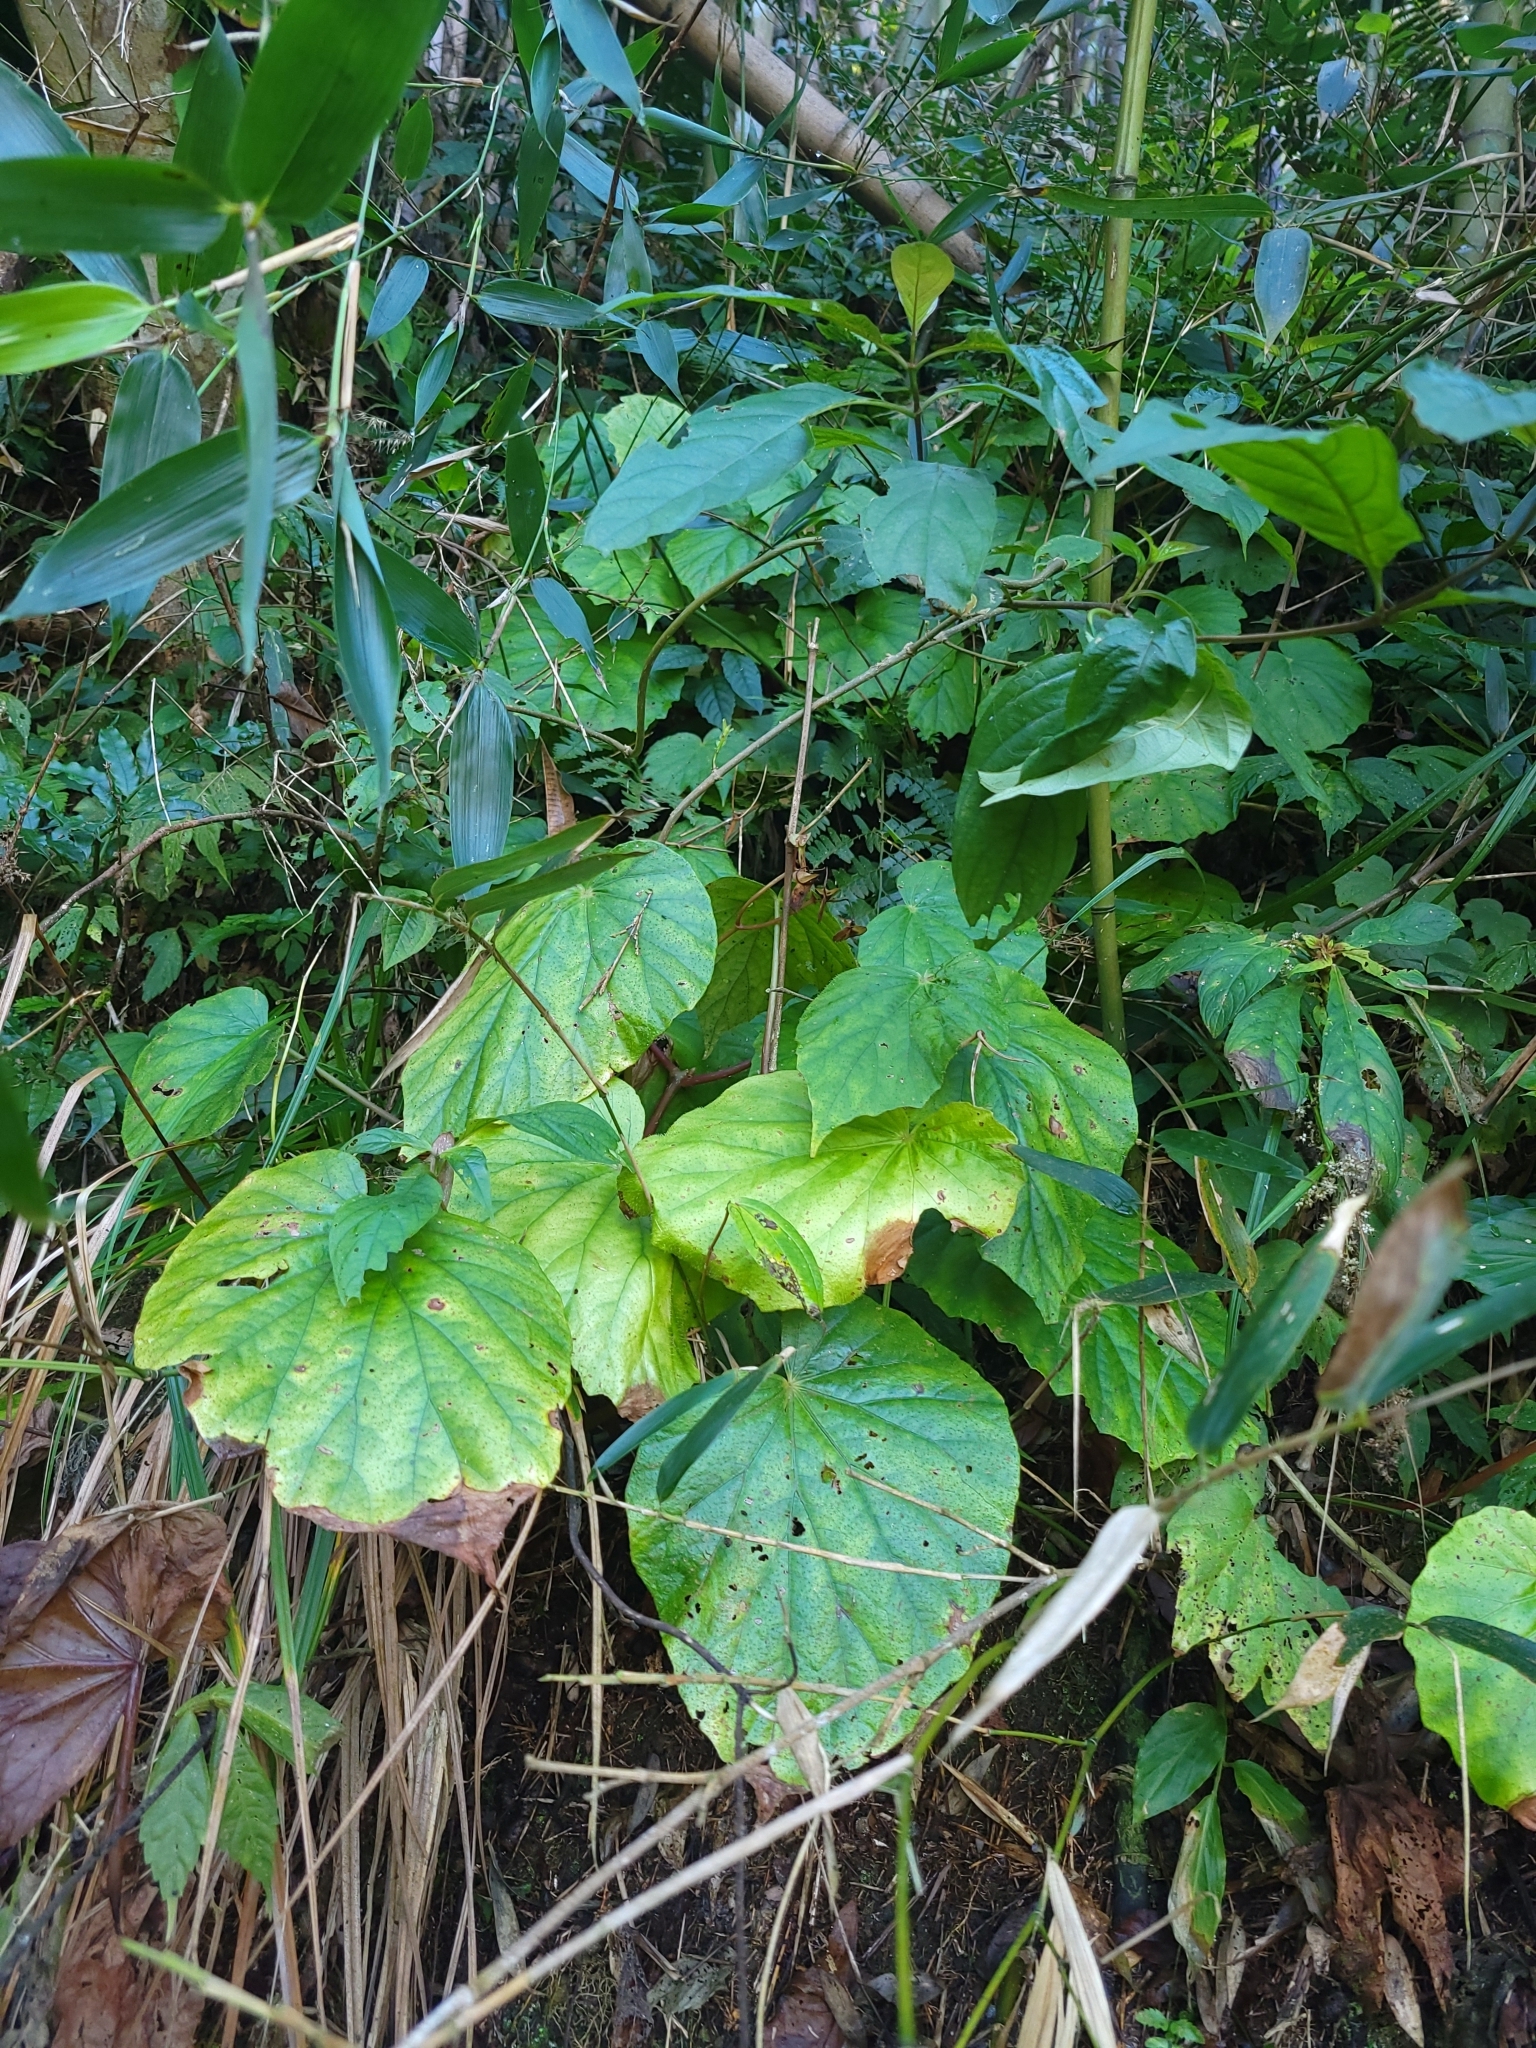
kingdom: Plantae
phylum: Tracheophyta
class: Magnoliopsida
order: Cucurbitales
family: Begoniaceae
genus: Begonia
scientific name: Begonia chitoensis
